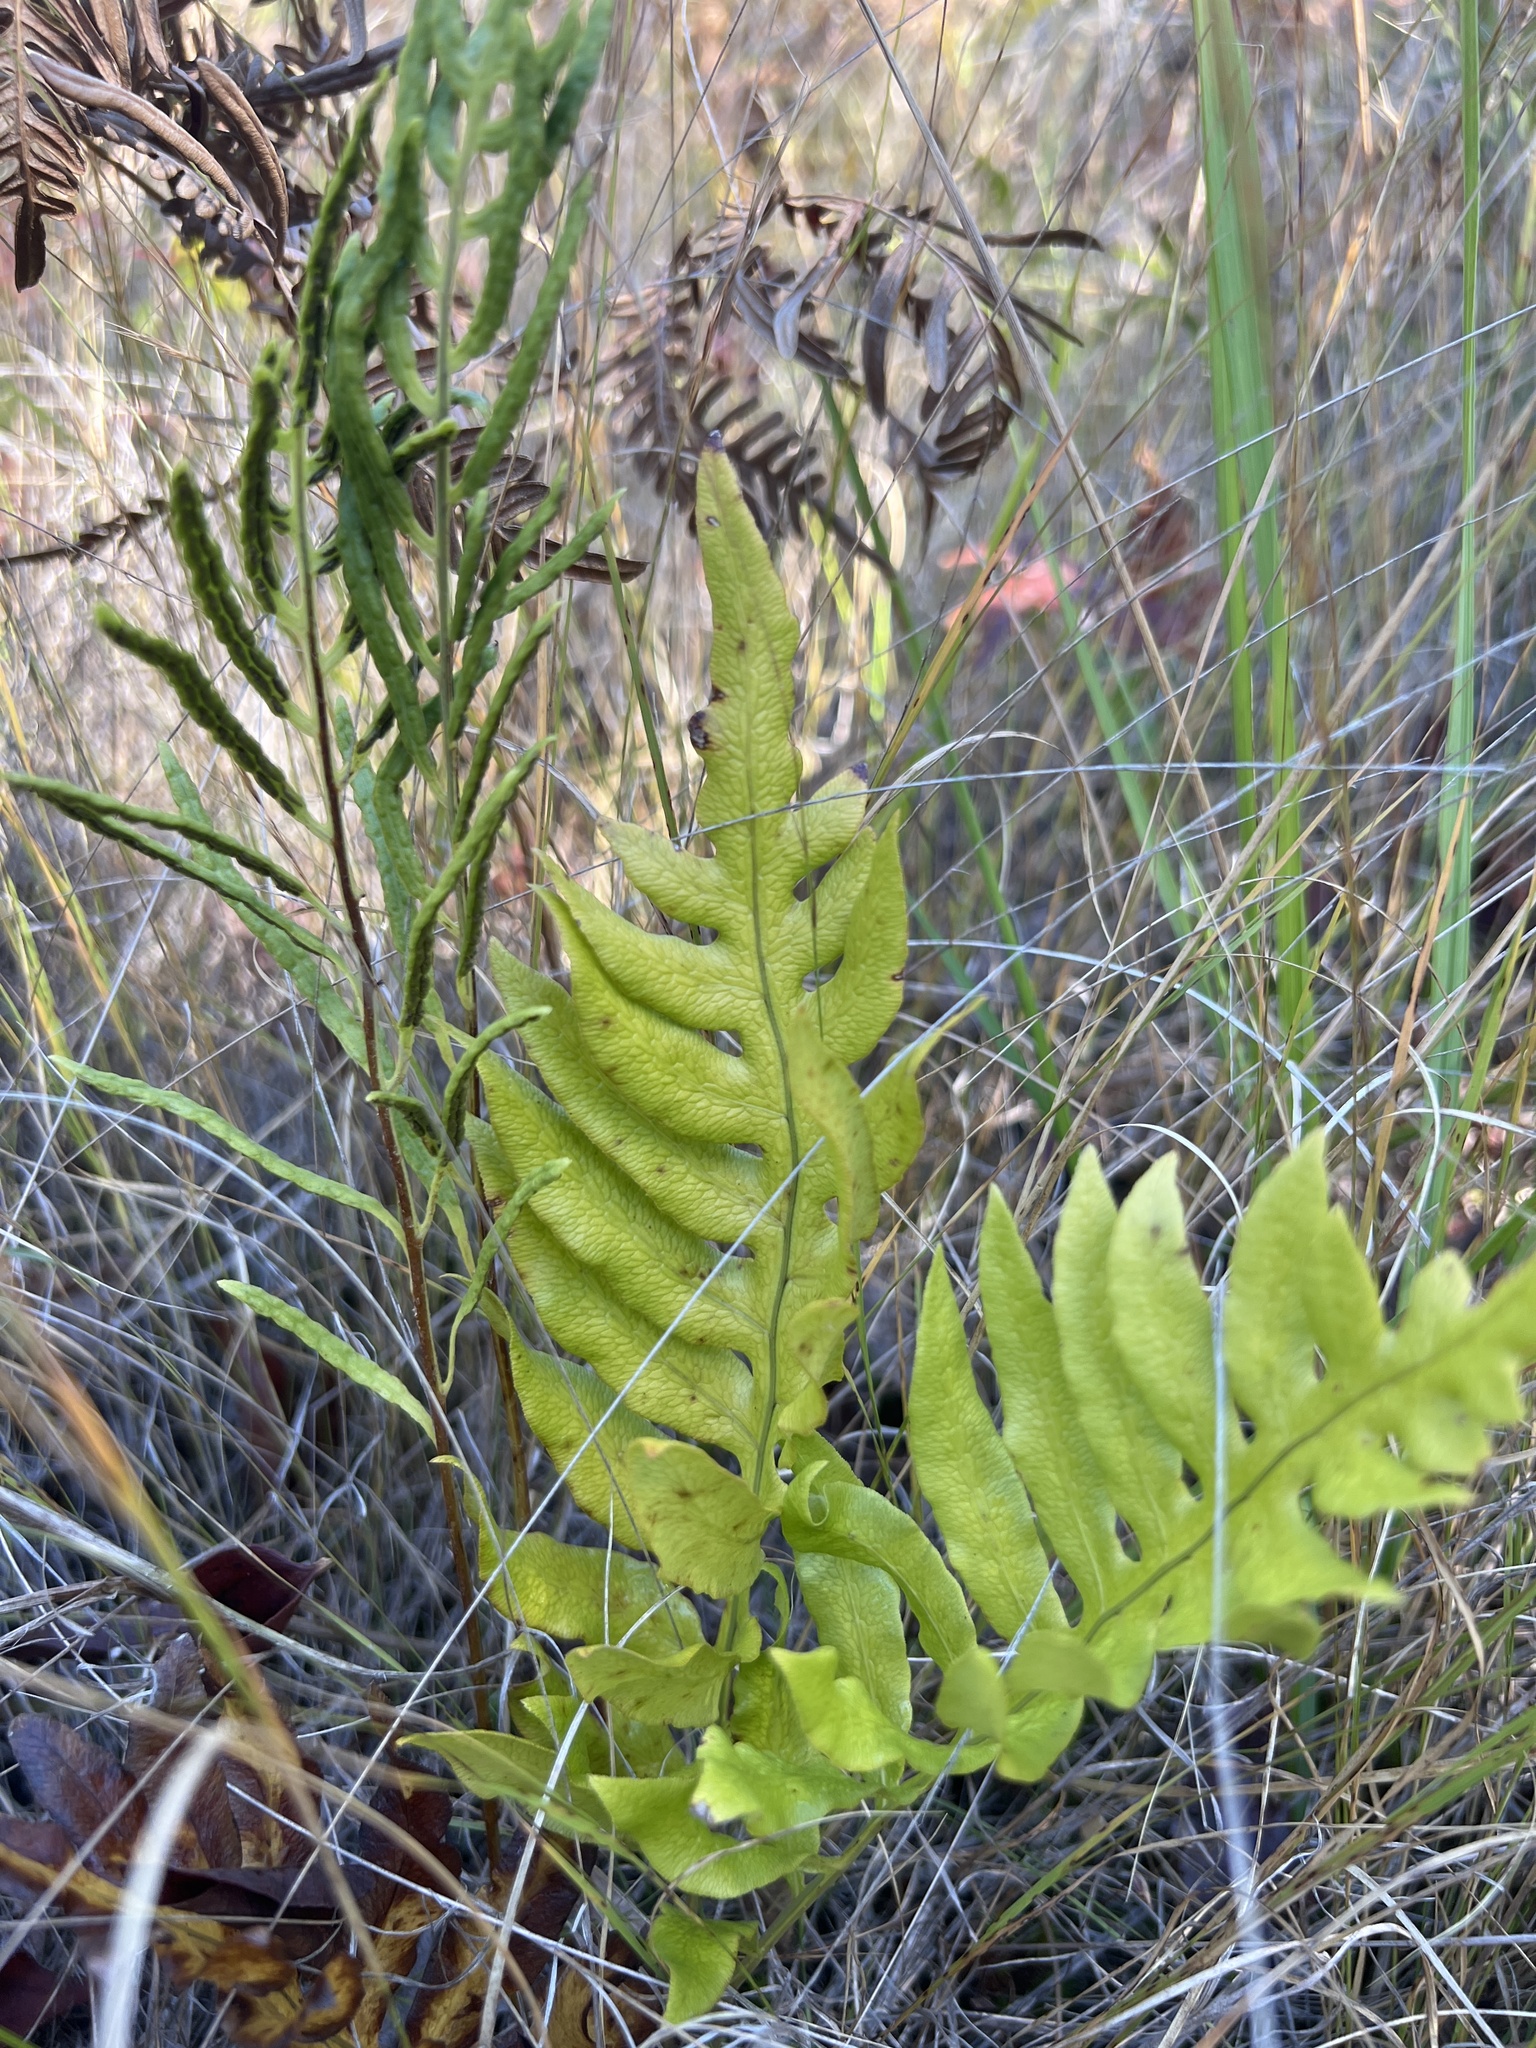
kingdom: Plantae
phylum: Tracheophyta
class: Polypodiopsida
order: Polypodiales
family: Blechnaceae
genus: Lorinseria
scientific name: Lorinseria areolata
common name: Dwarf chain fern
